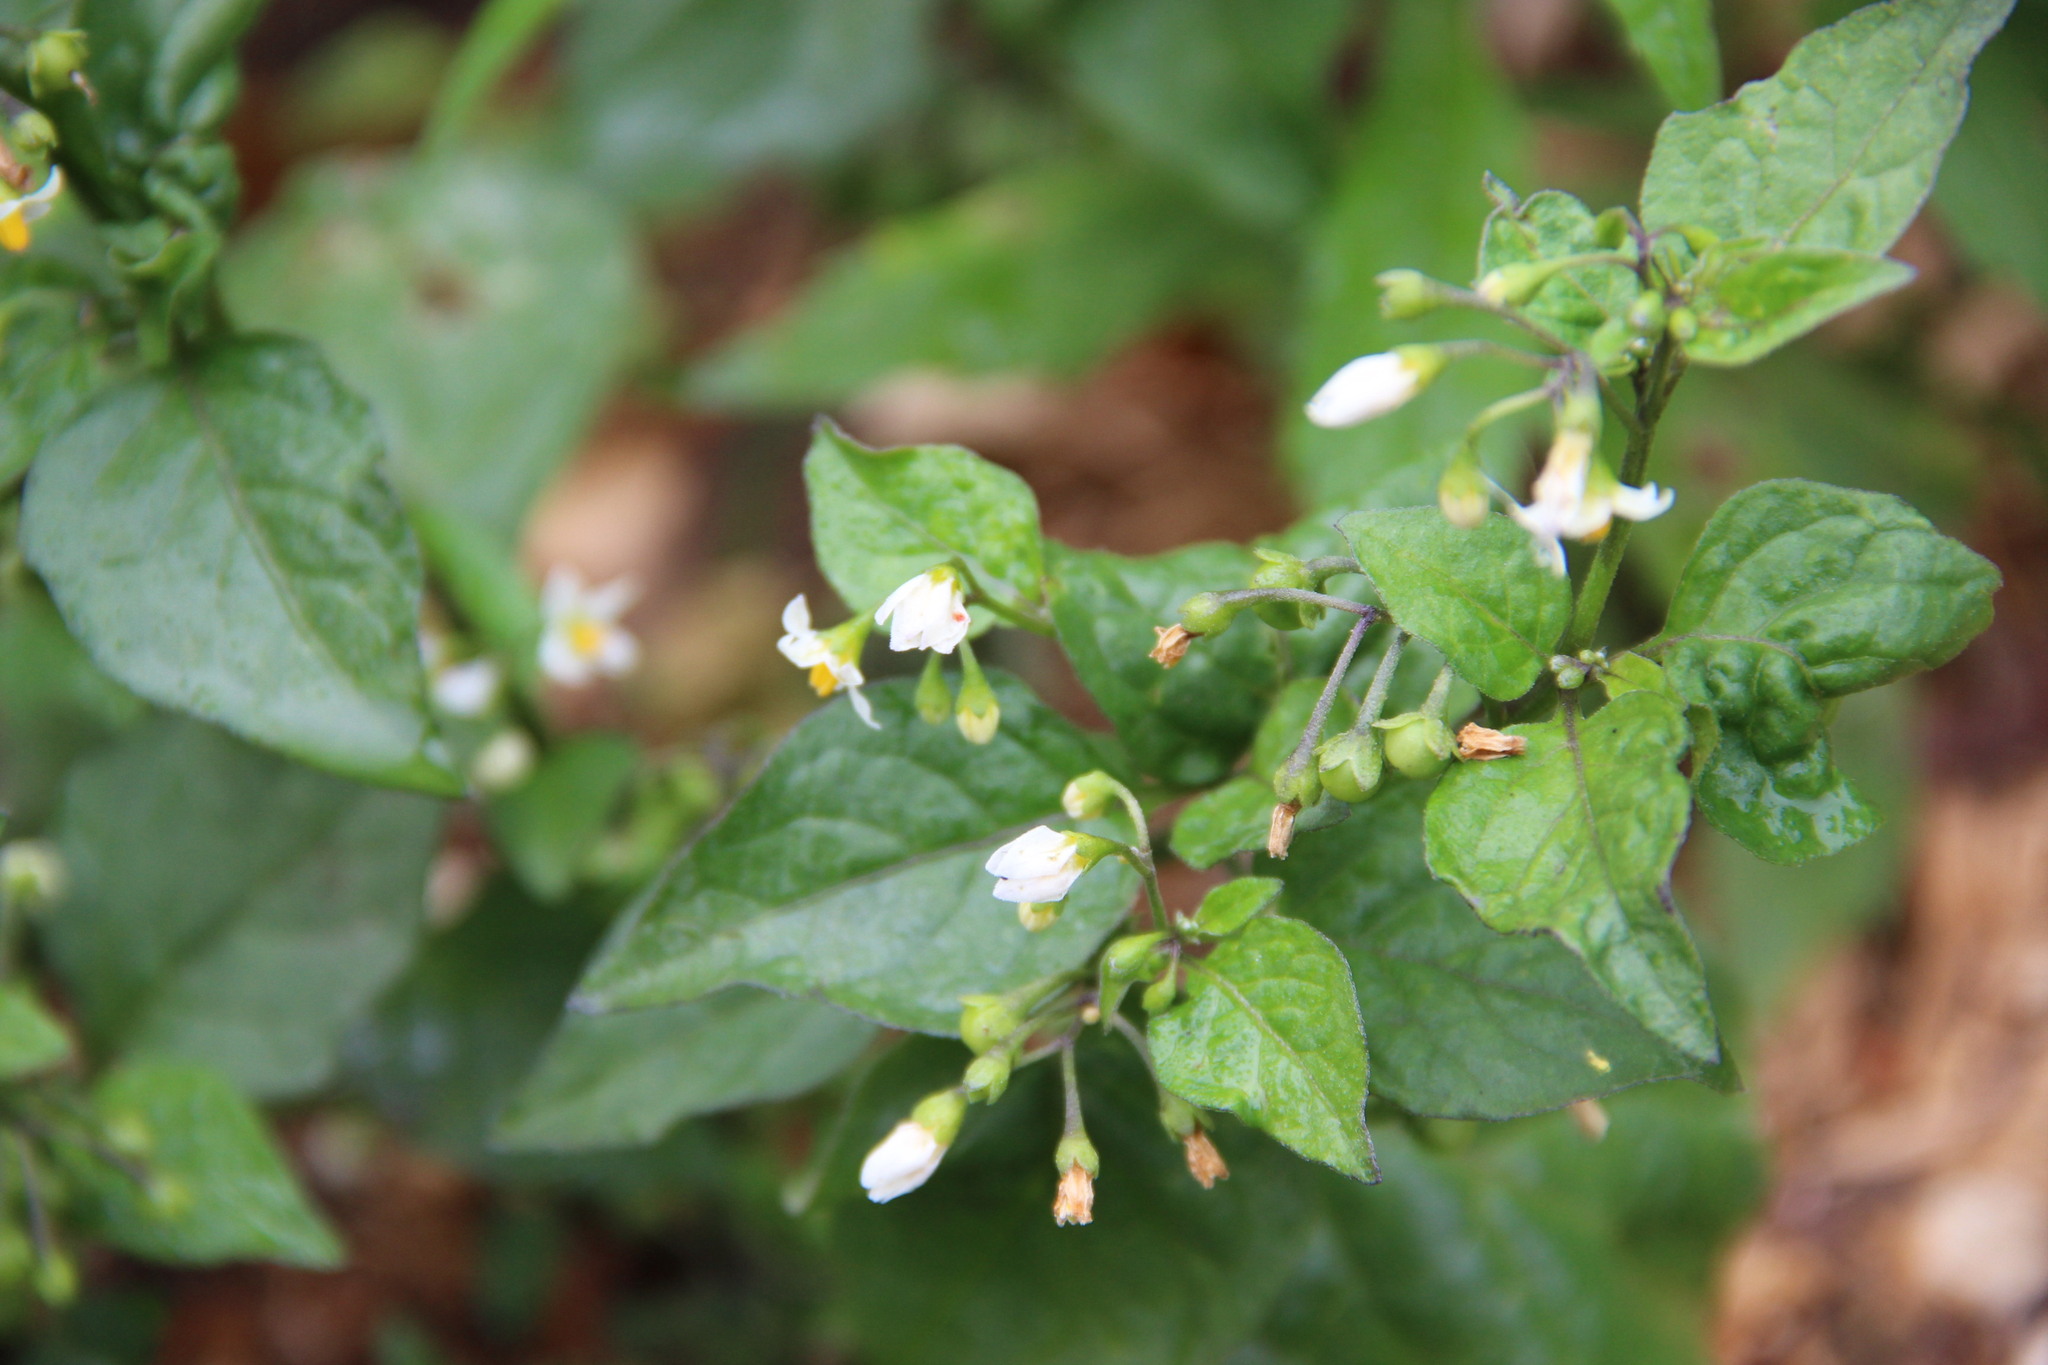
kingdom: Plantae
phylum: Tracheophyta
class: Magnoliopsida
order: Solanales
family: Solanaceae
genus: Solanum
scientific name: Solanum nigrum
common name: Black nightshade
